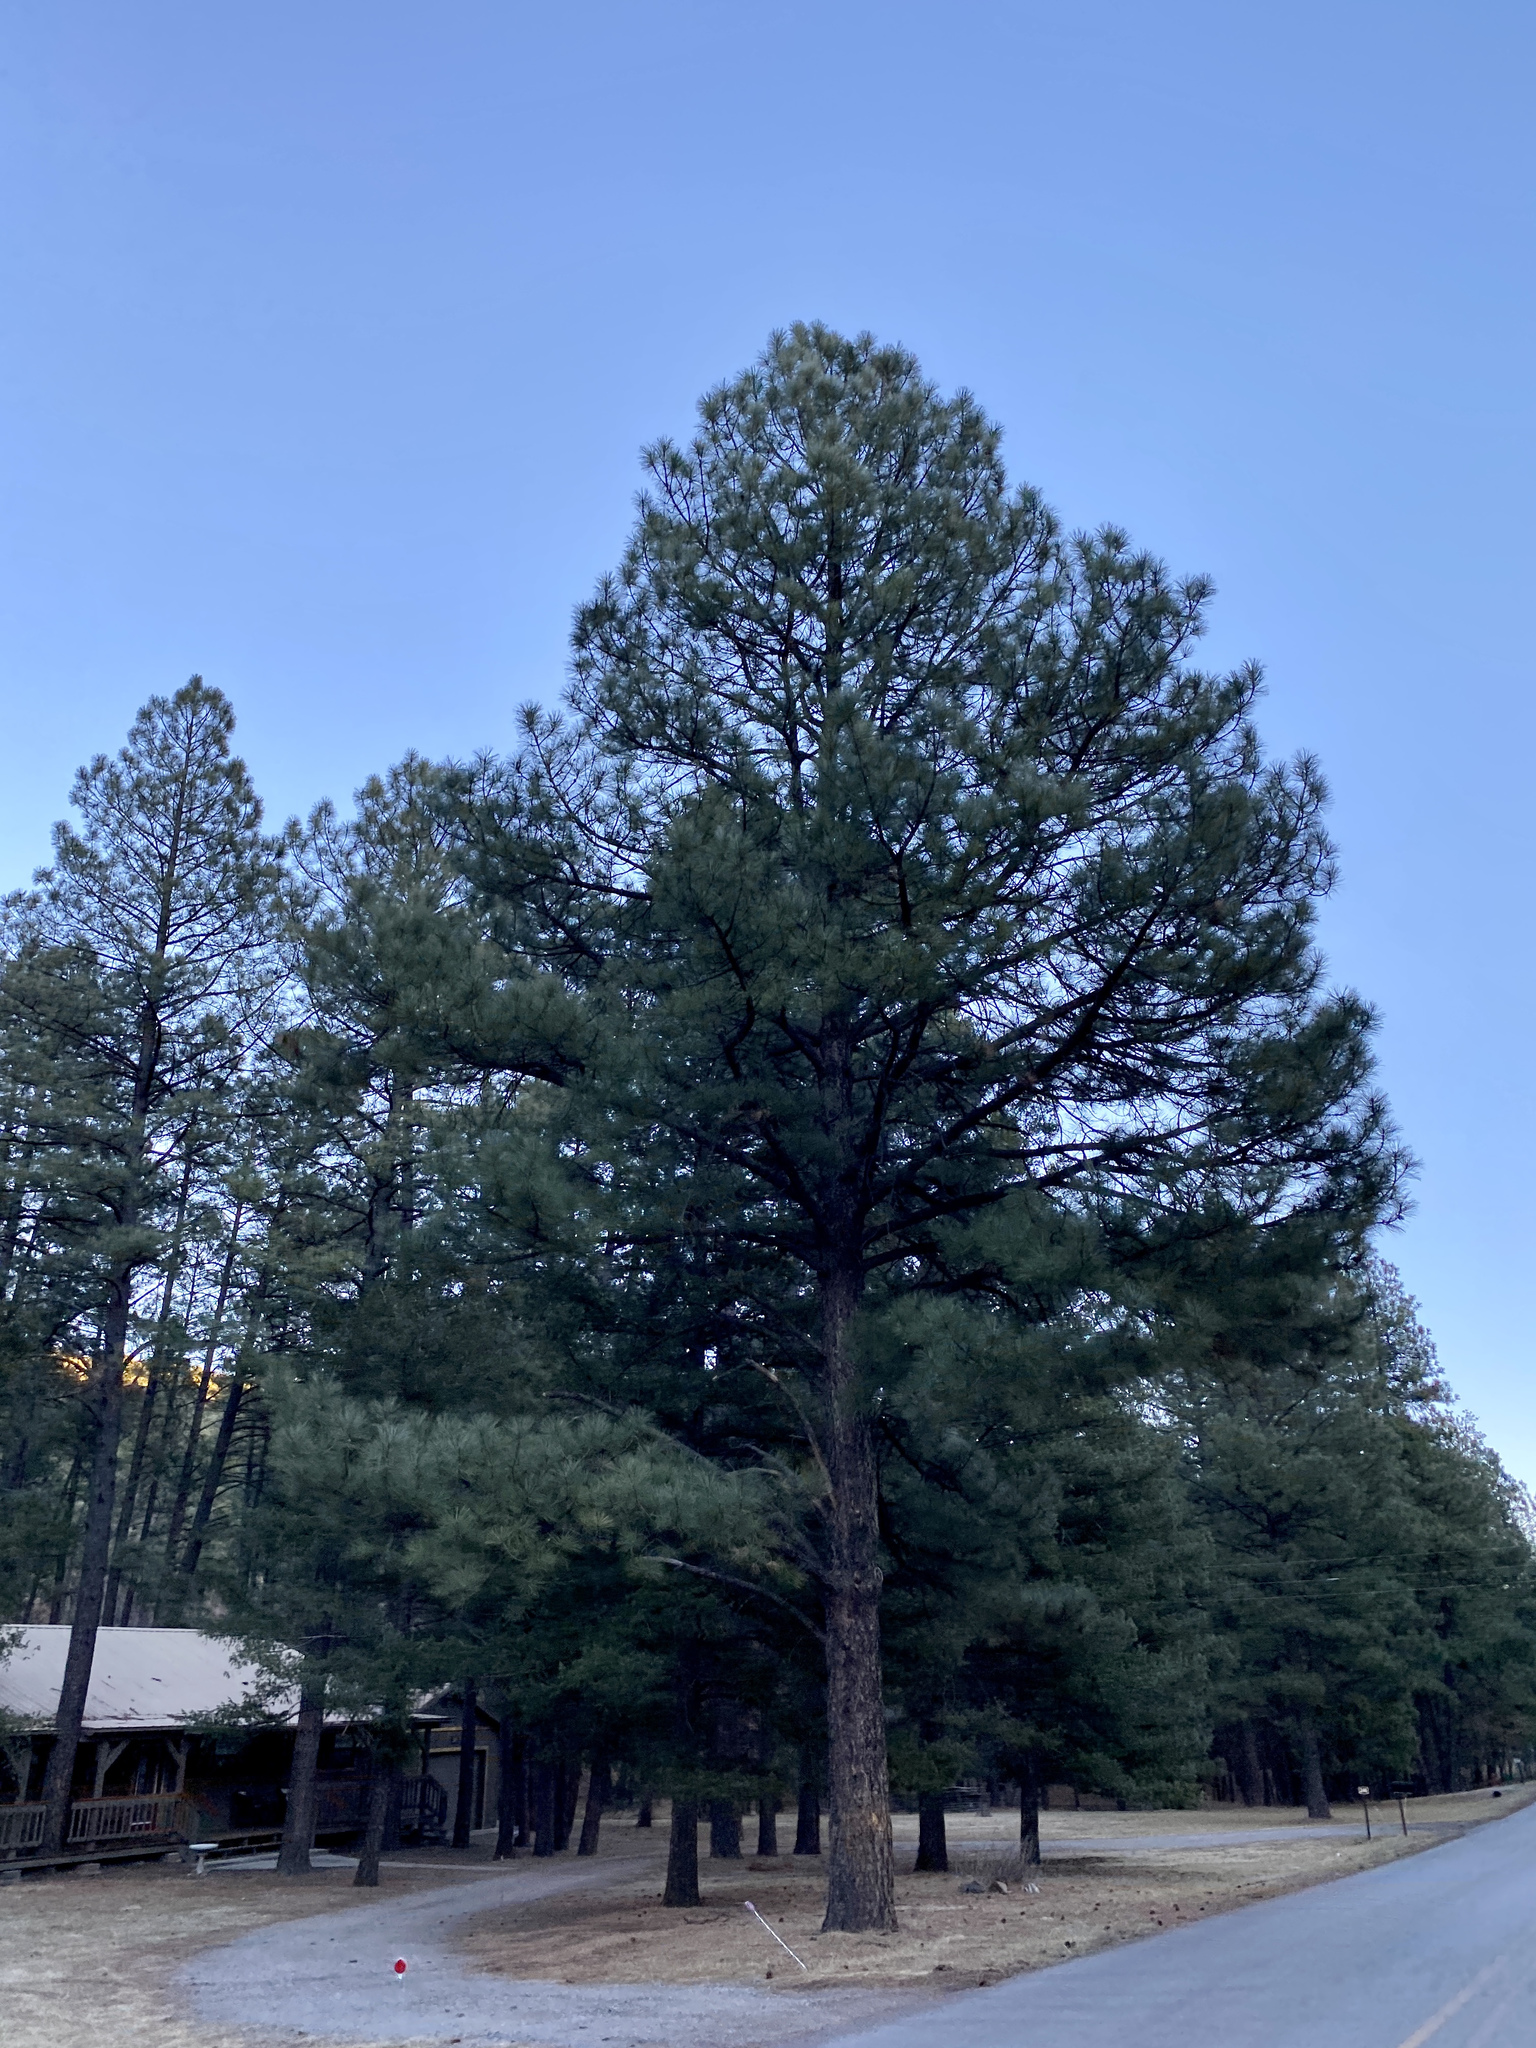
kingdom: Plantae
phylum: Tracheophyta
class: Pinopsida
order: Pinales
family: Pinaceae
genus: Pinus
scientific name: Pinus ponderosa
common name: Western yellow-pine
